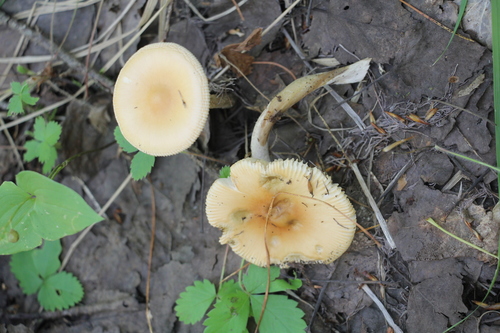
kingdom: Fungi
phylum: Basidiomycota
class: Agaricomycetes
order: Agaricales
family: Amanitaceae
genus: Amanita
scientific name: Amanita crocea
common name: Orange grisette
